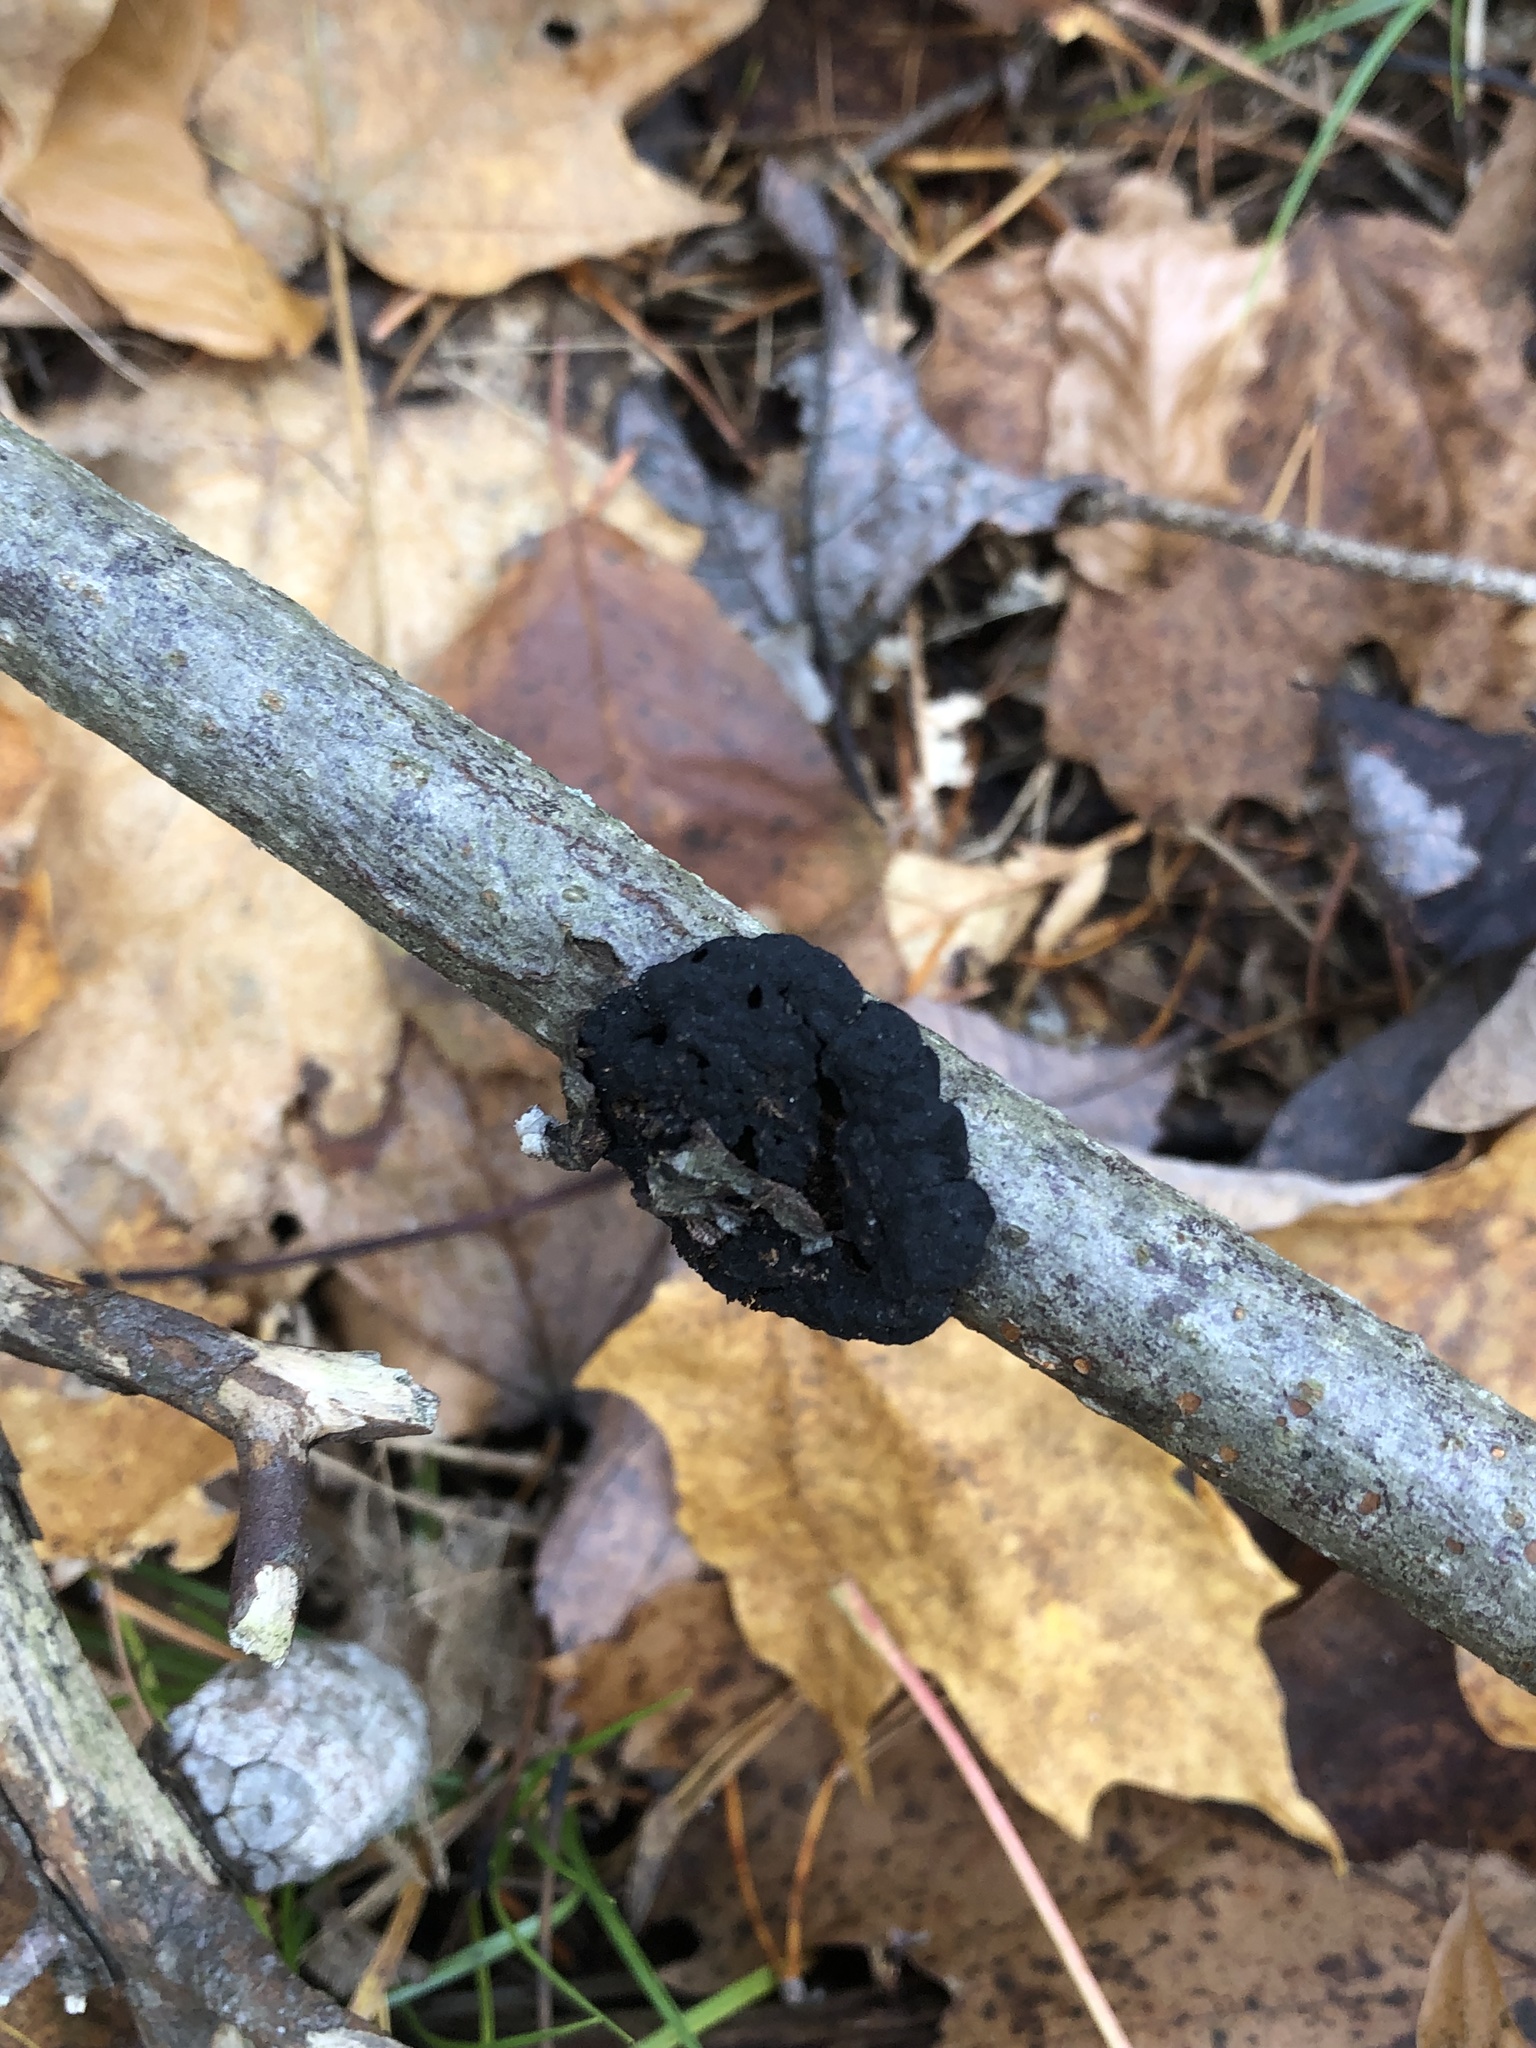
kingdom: Fungi
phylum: Ascomycota
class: Dothideomycetes
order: Venturiales
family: Venturiaceae
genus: Apiosporina
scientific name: Apiosporina morbosa
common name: Black knot
